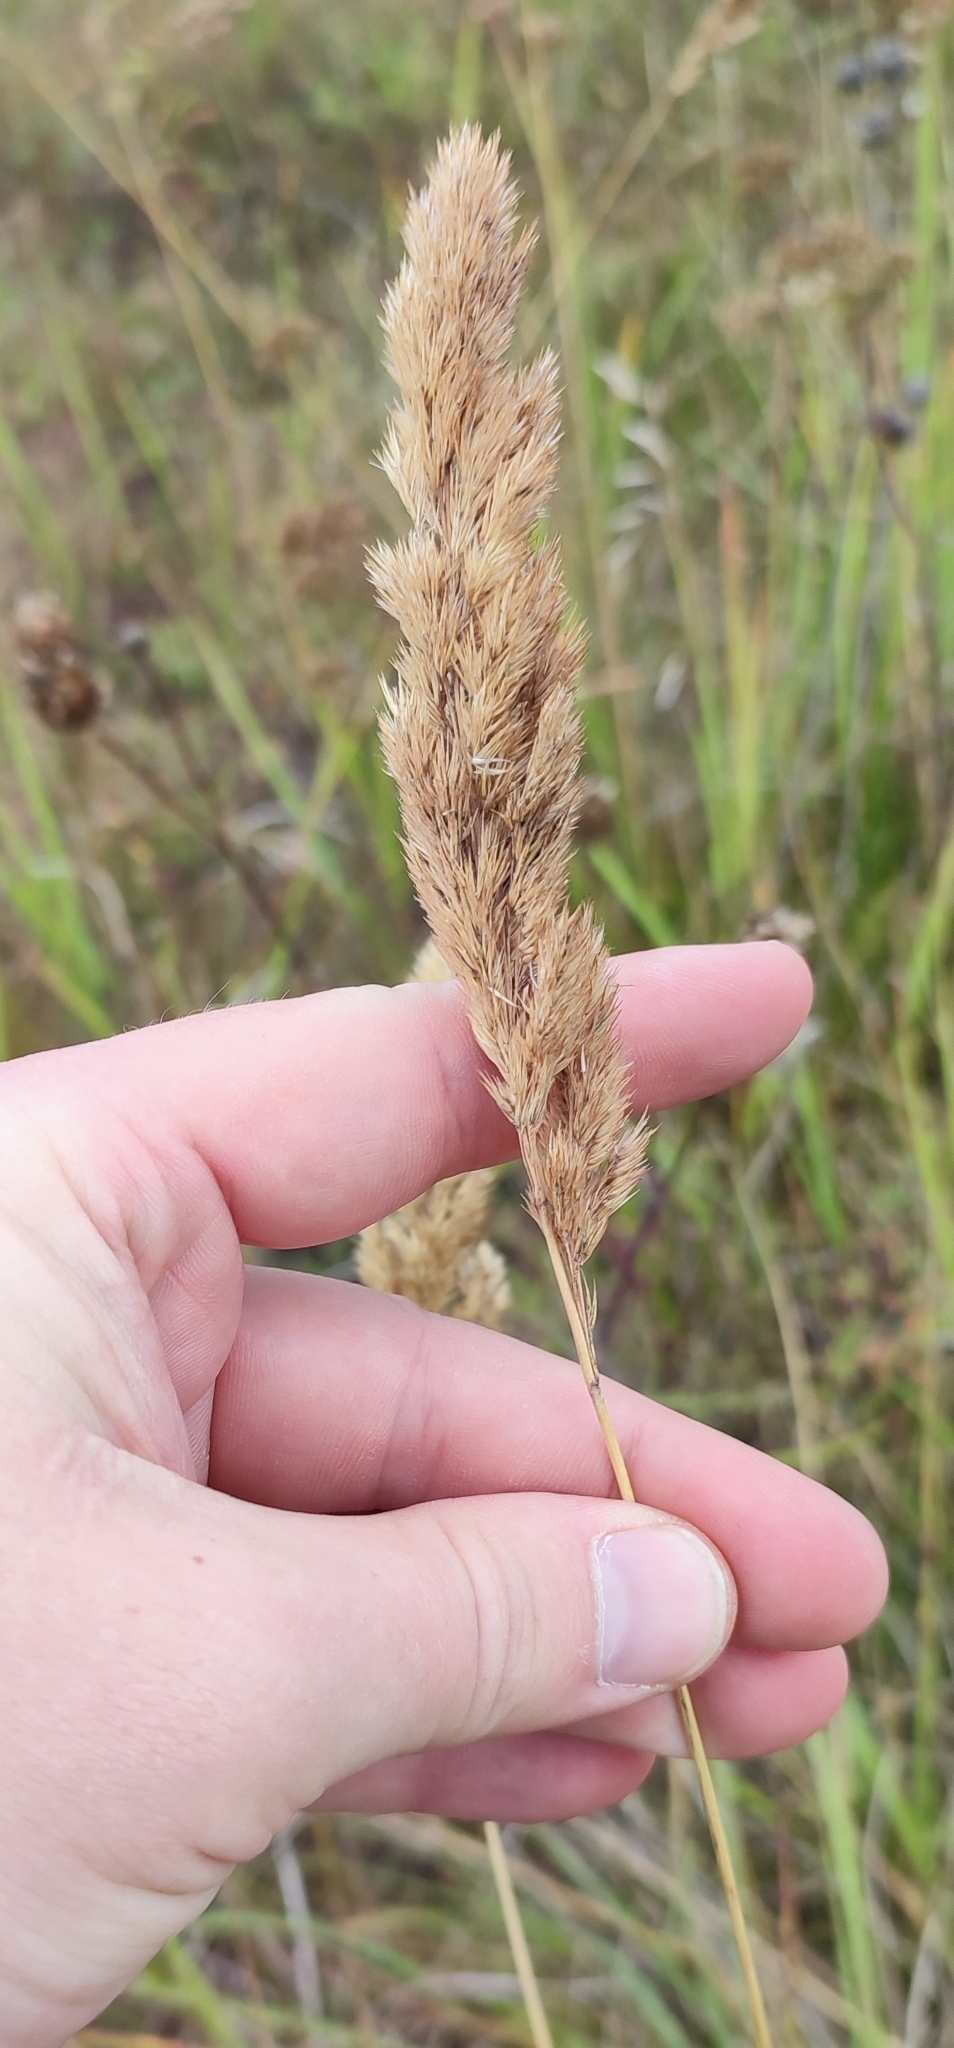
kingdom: Plantae
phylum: Tracheophyta
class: Liliopsida
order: Poales
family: Poaceae
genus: Calamagrostis
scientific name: Calamagrostis epigejos
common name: Wood small-reed
